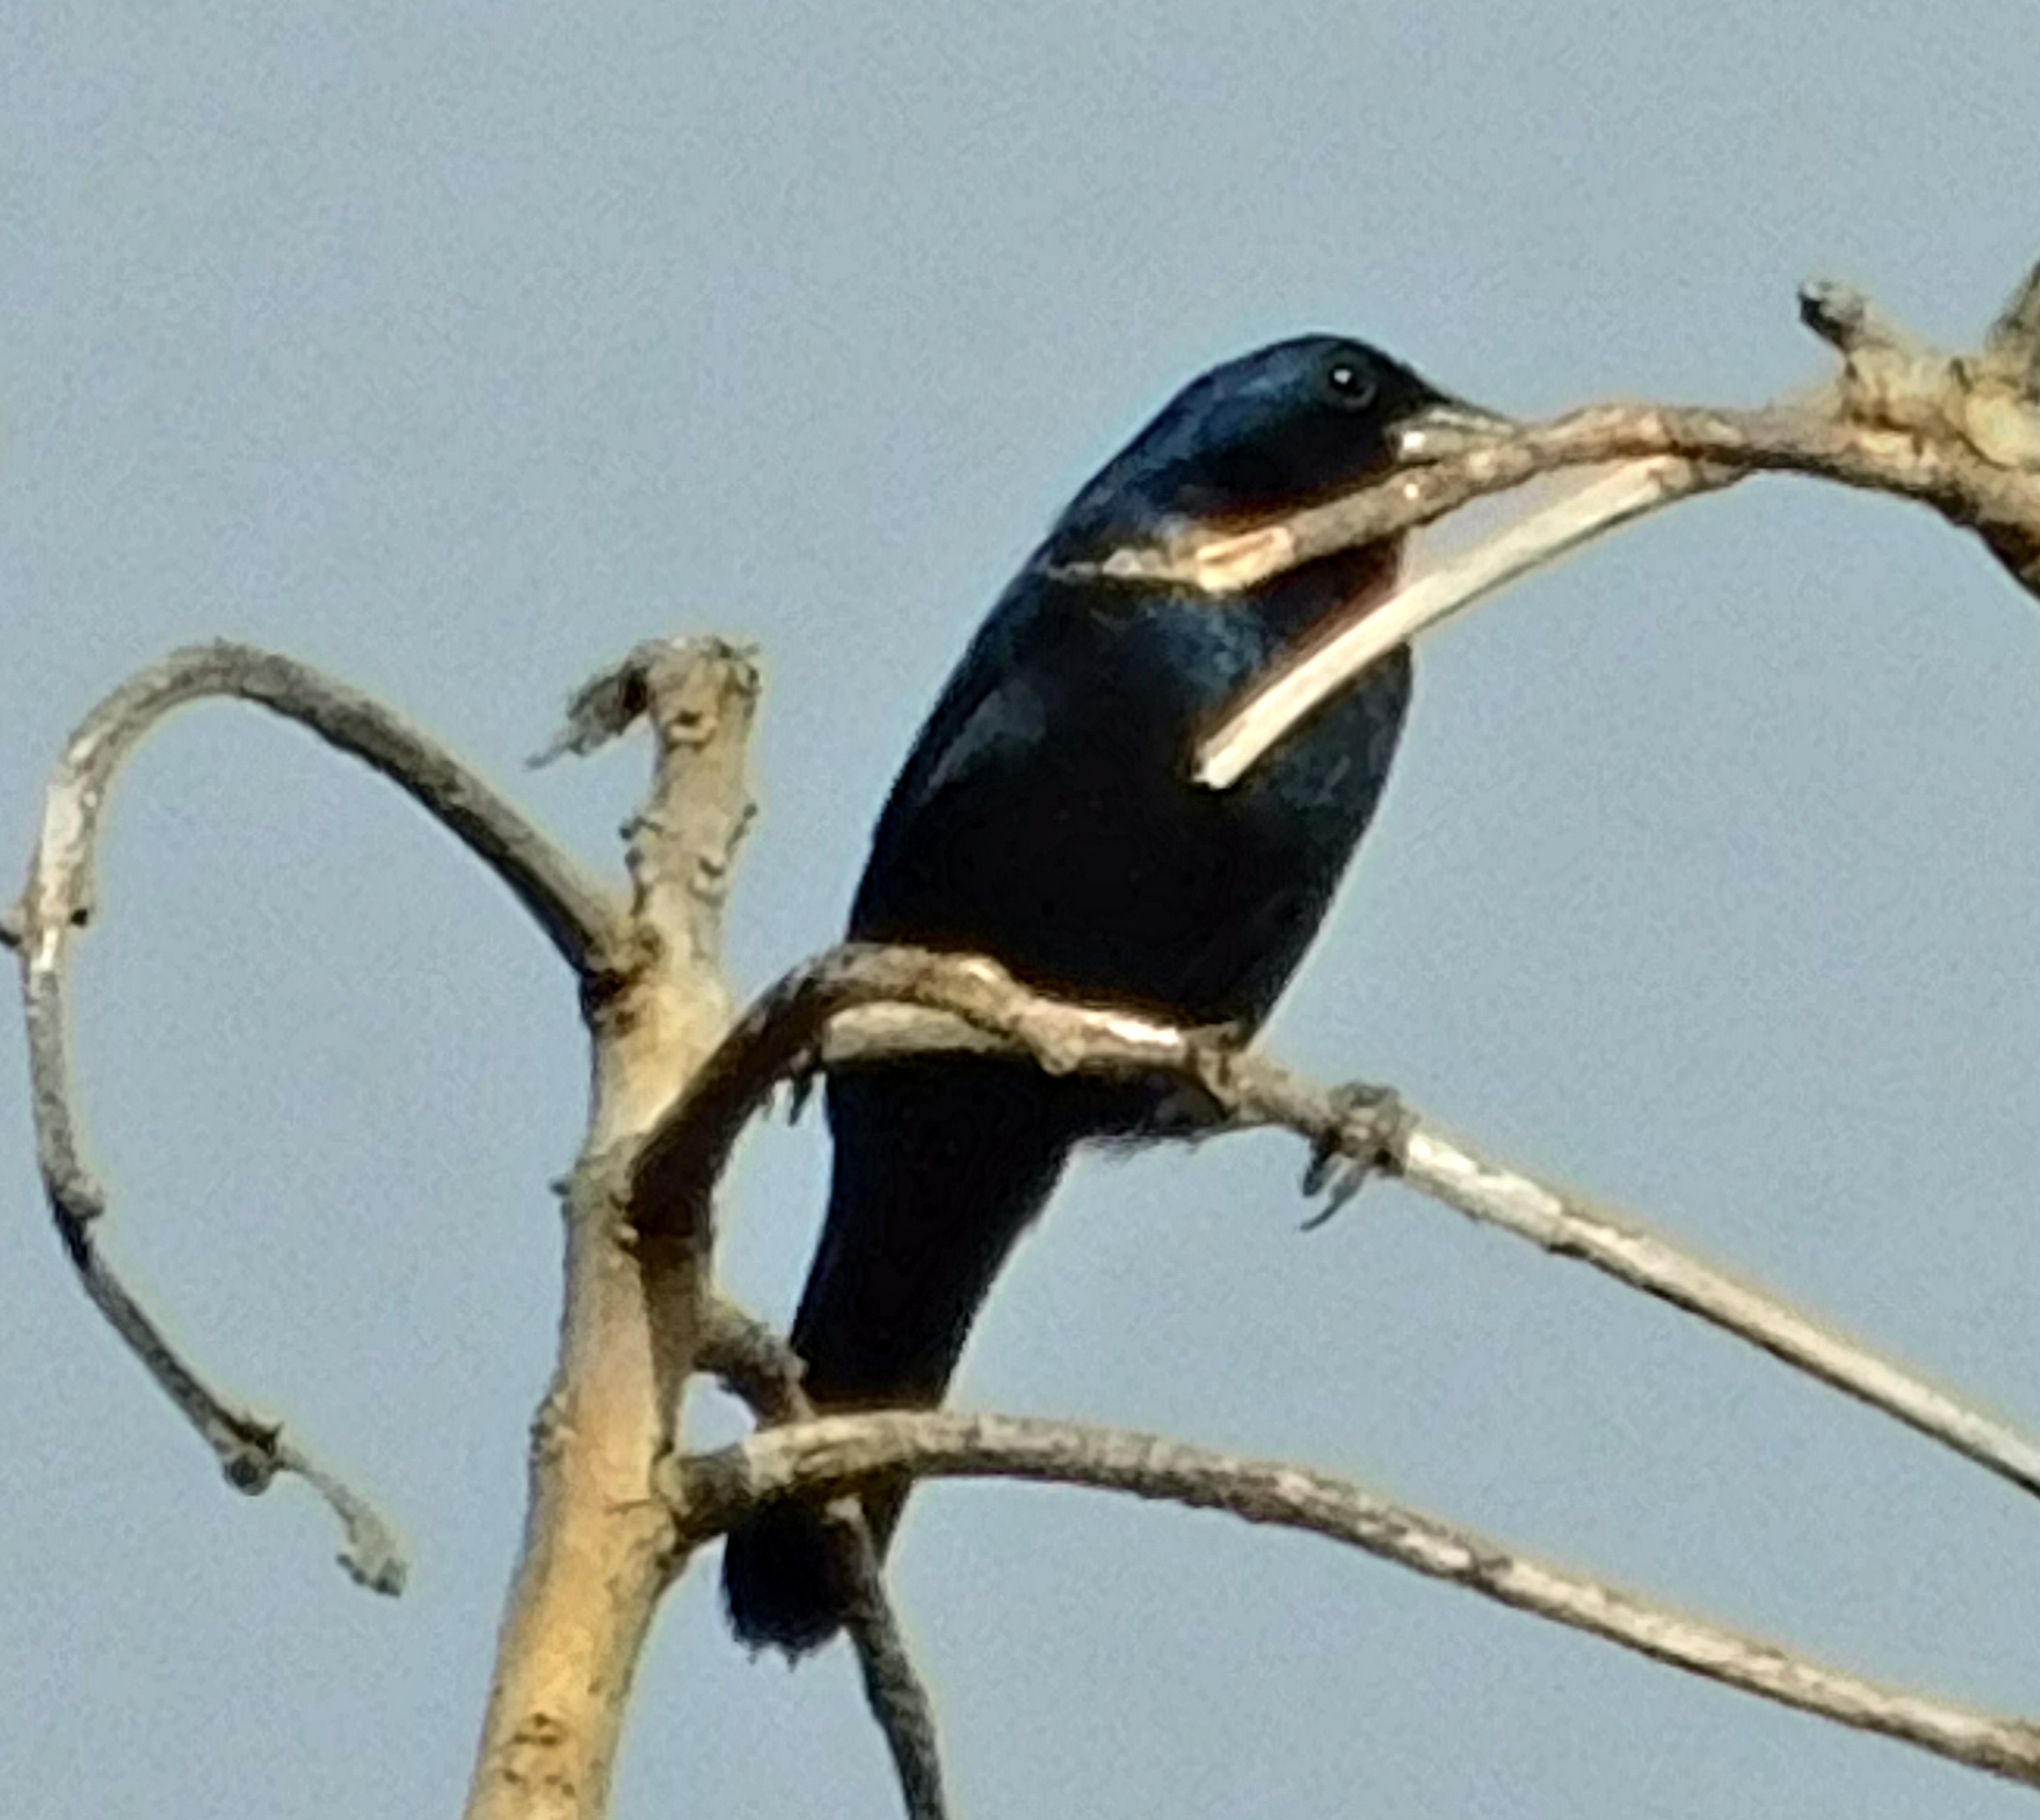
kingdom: Animalia
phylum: Chordata
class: Aves
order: Passeriformes
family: Thraupidae
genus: Volatinia
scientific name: Volatinia jacarina
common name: Blue-black grassquit
